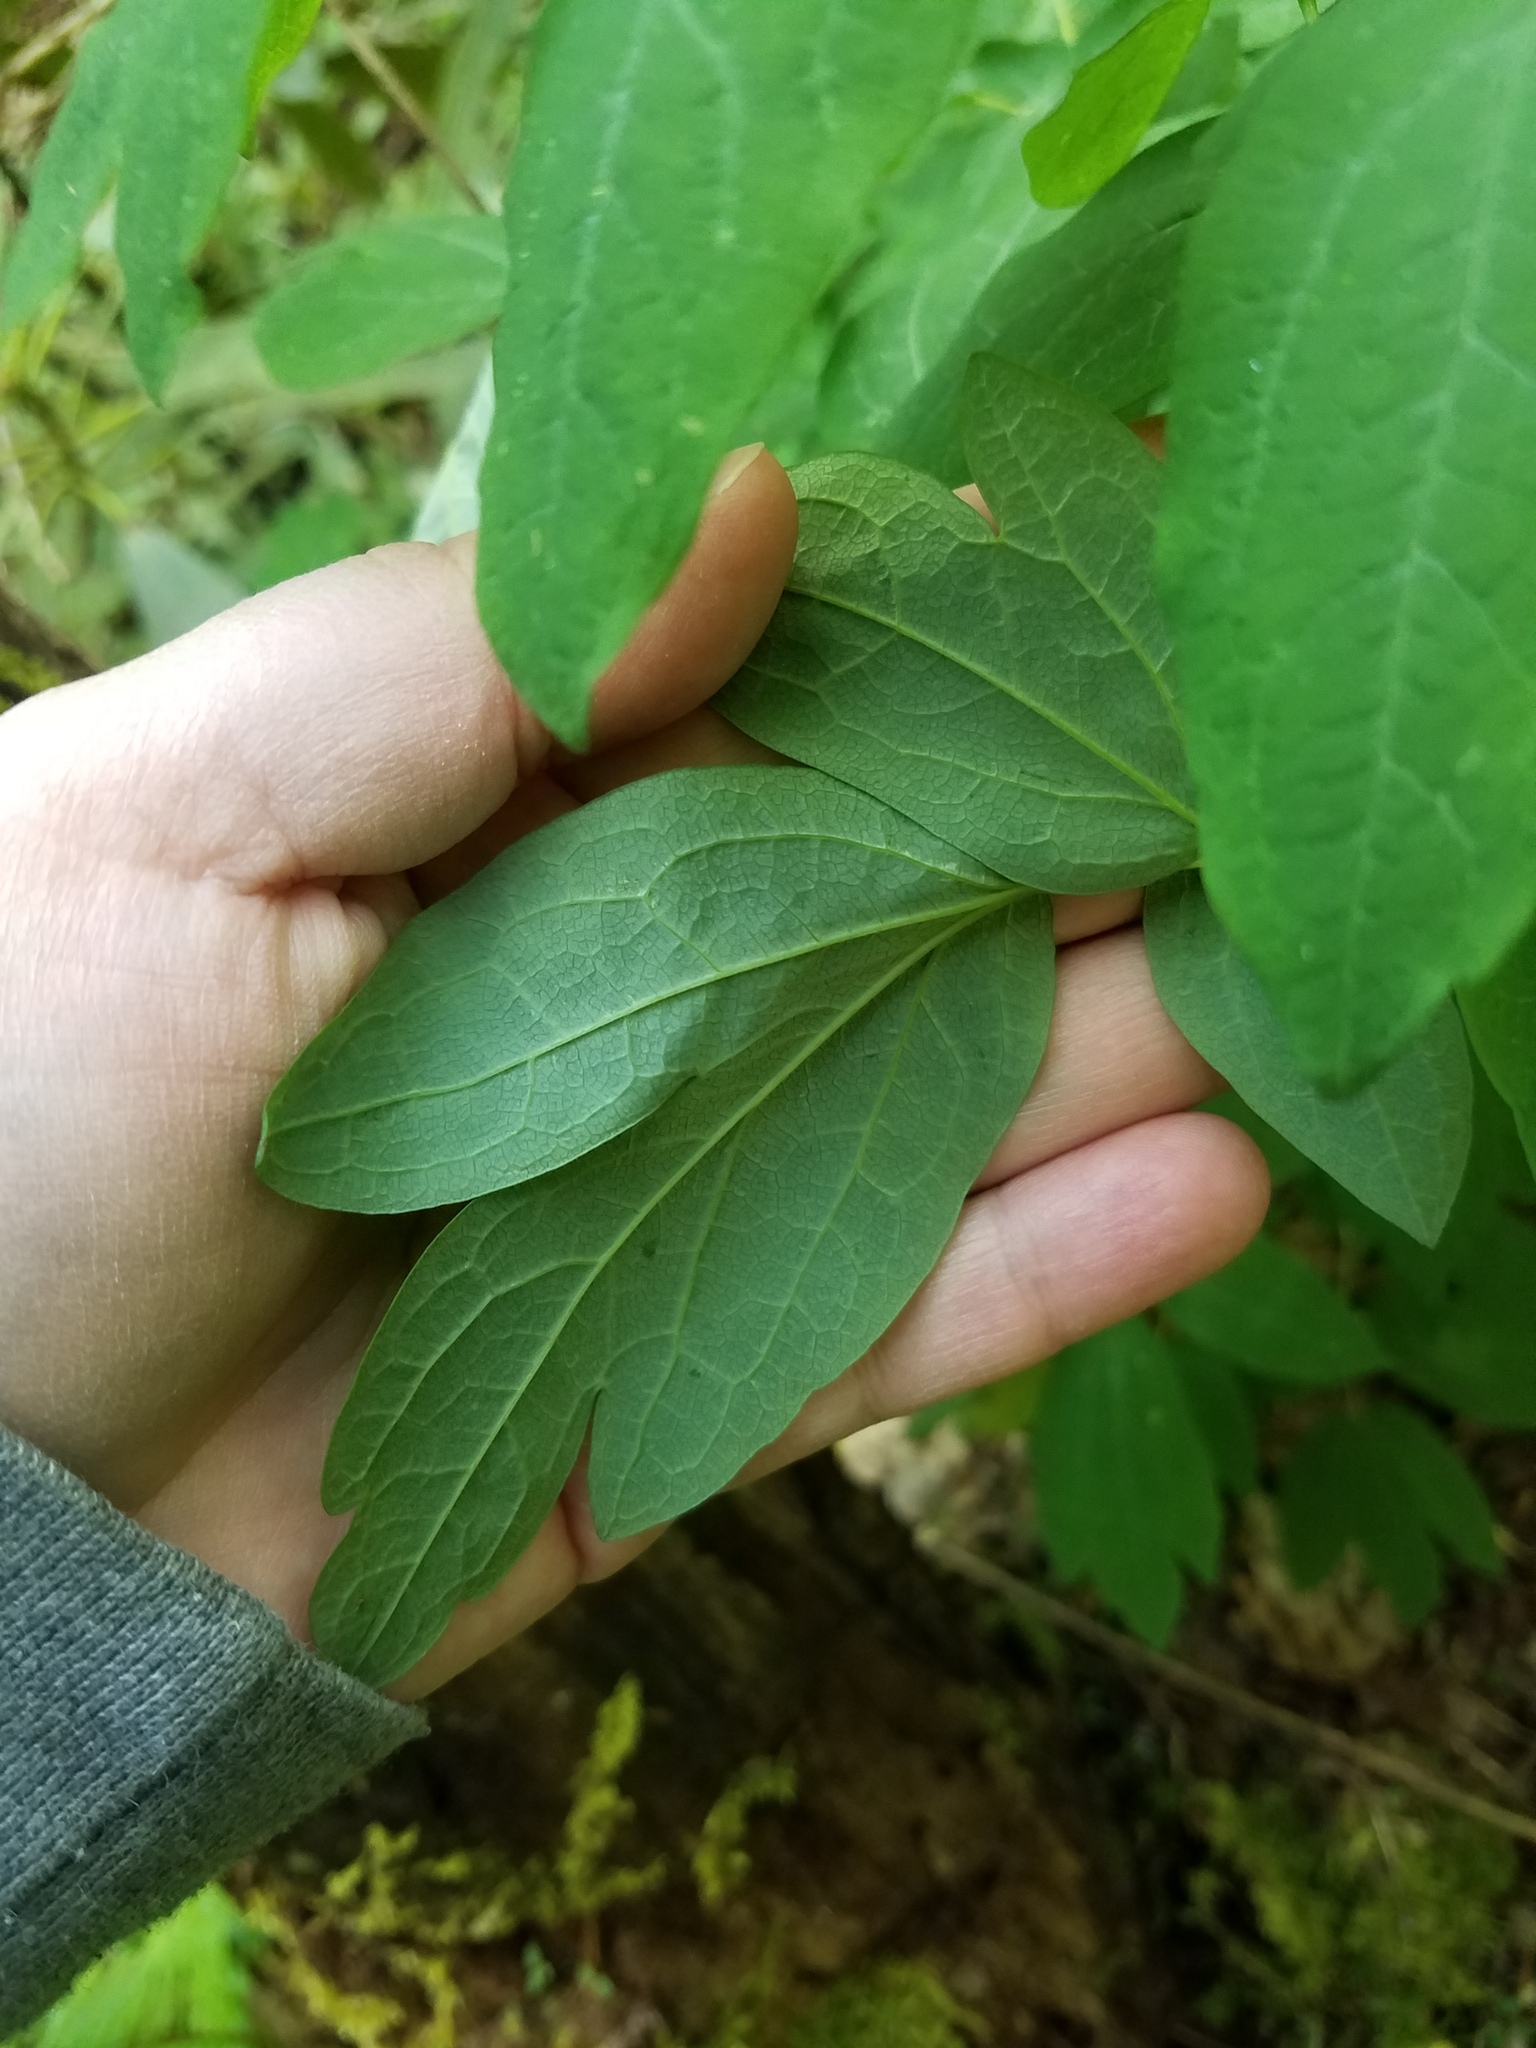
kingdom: Plantae
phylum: Tracheophyta
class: Magnoliopsida
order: Ranunculales
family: Berberidaceae
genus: Caulophyllum
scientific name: Caulophyllum thalictroides
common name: Blue cohosh
